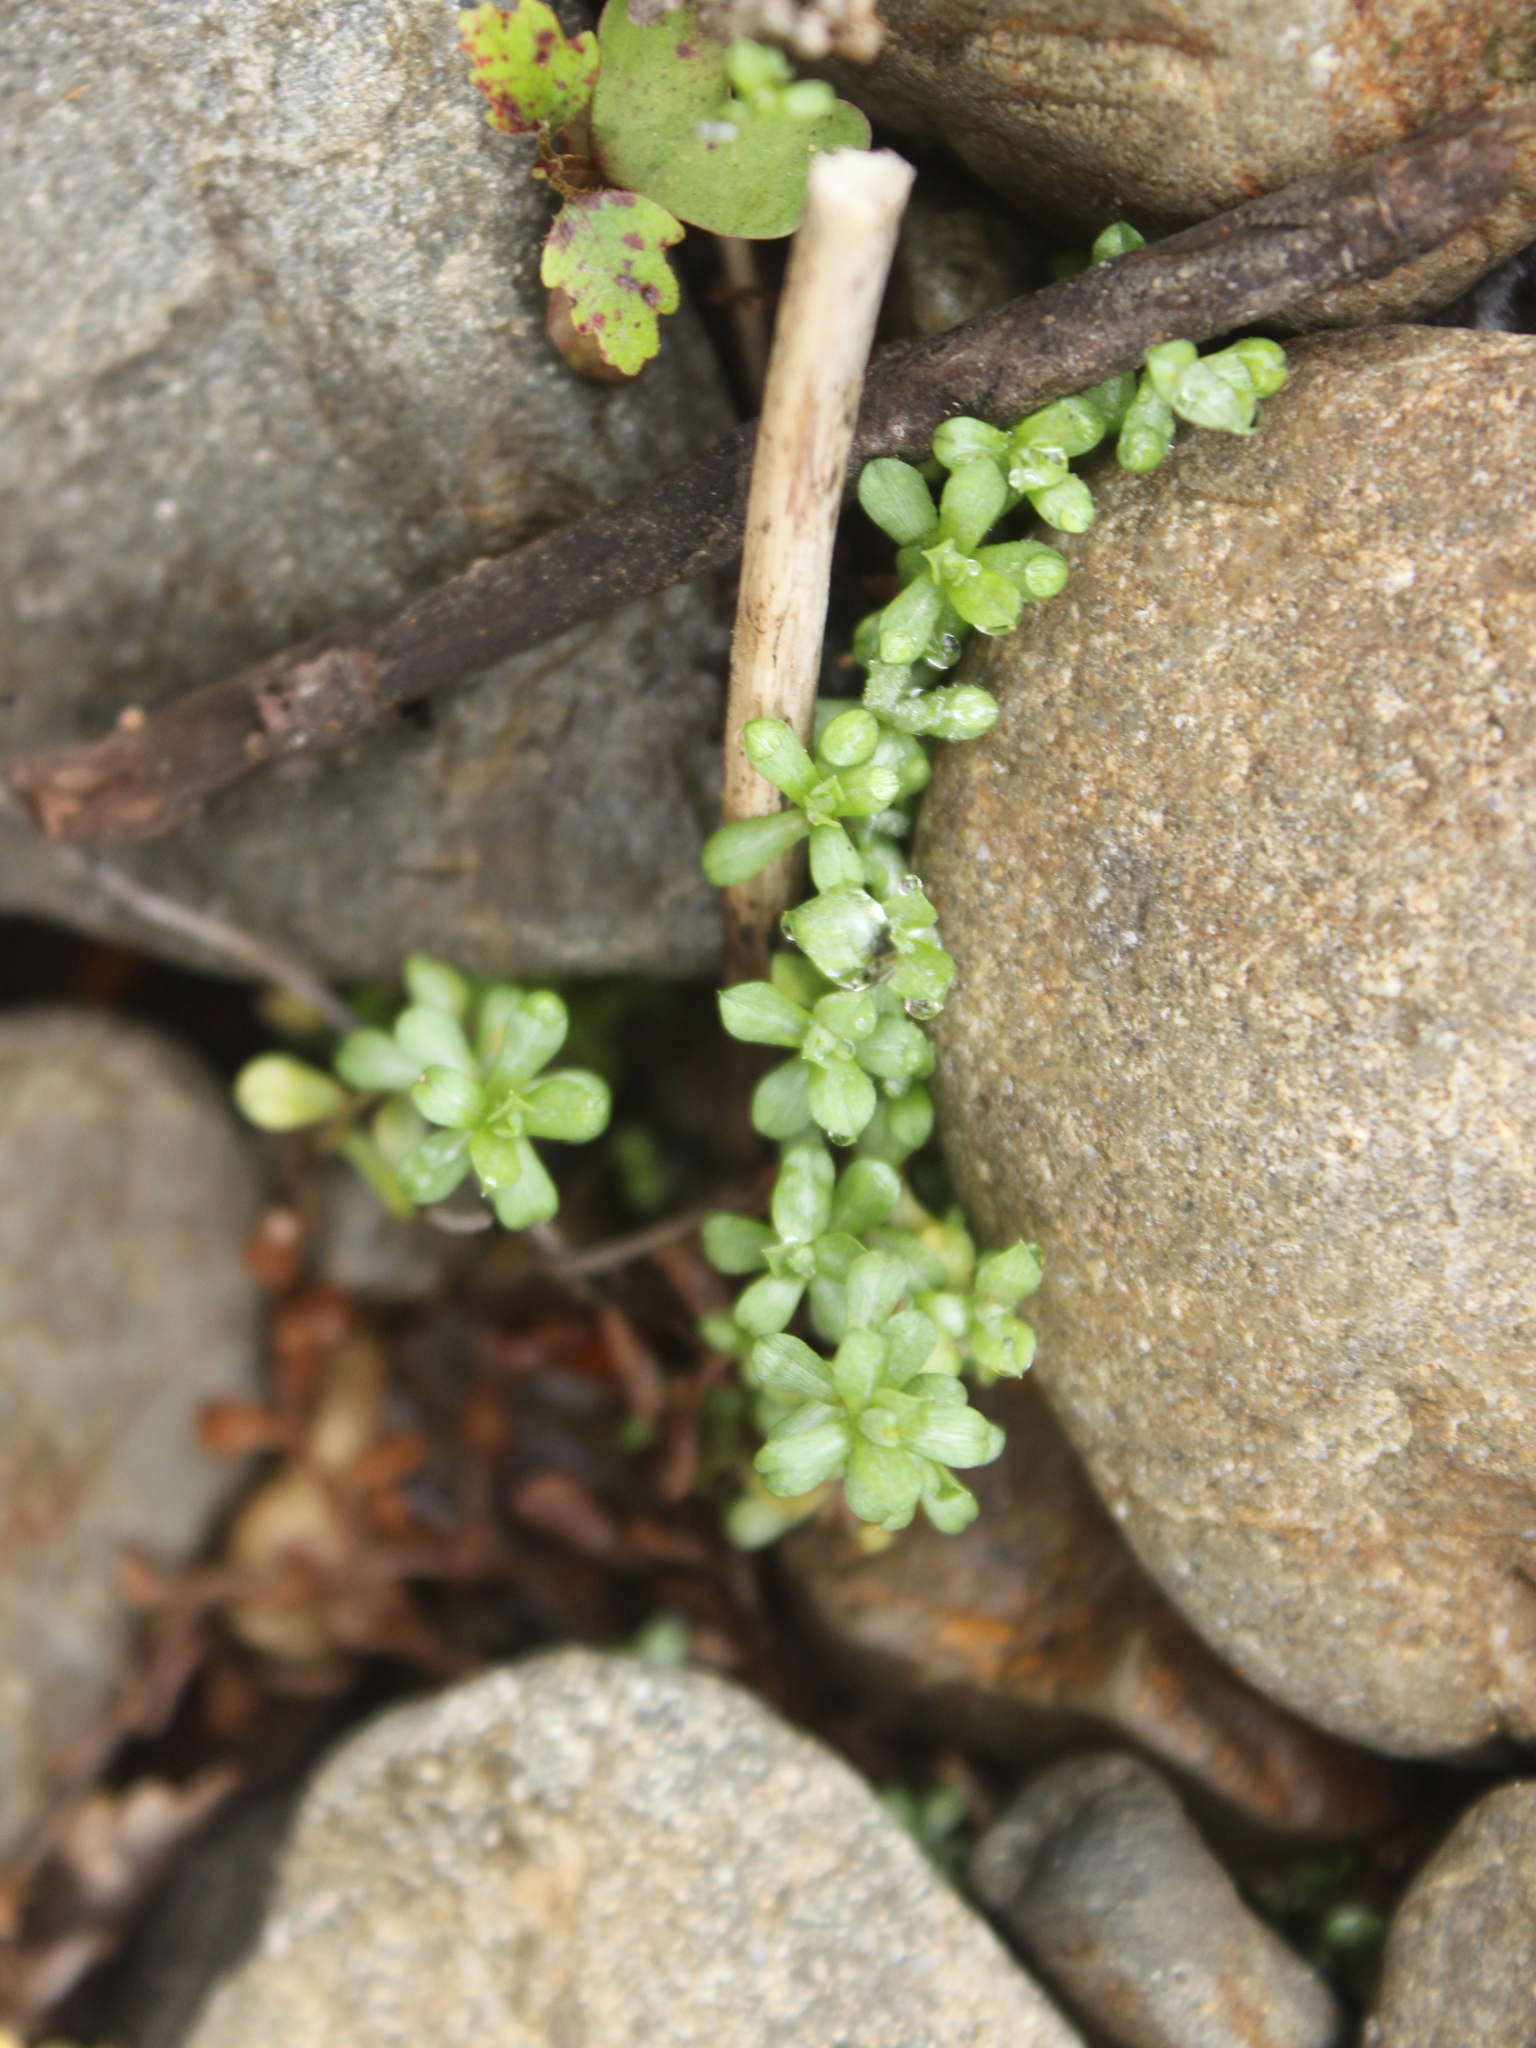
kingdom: Plantae
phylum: Tracheophyta
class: Magnoliopsida
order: Asterales
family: Asteraceae
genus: Anaphalioides
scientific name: Anaphalioides bellidioides
